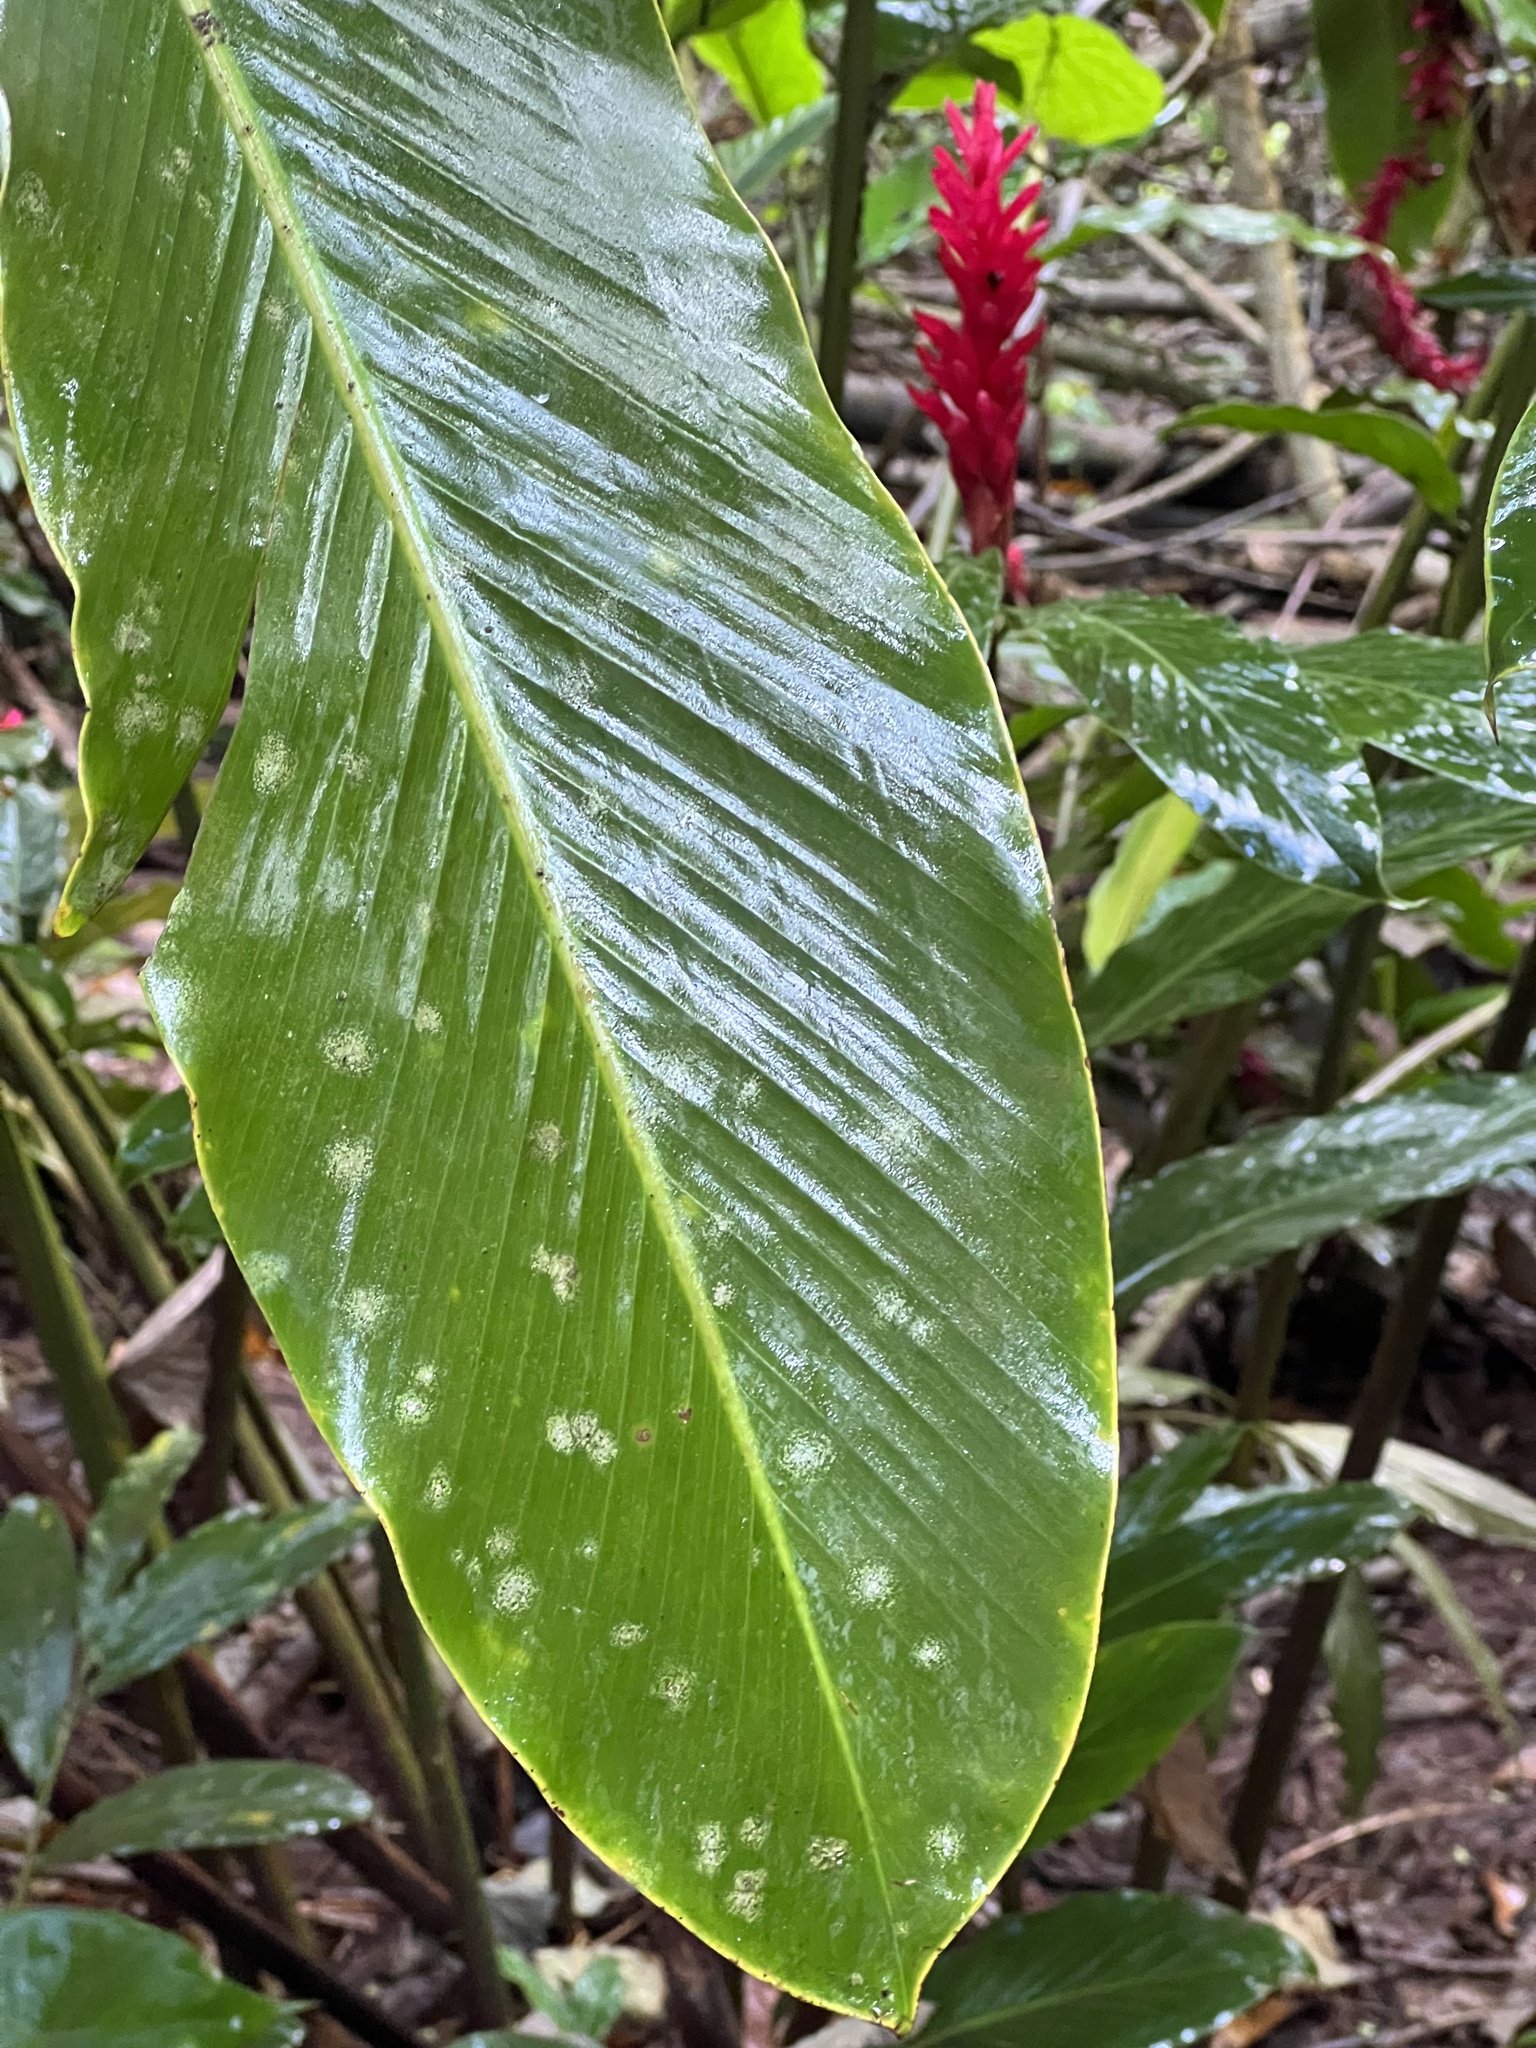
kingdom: Plantae
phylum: Tracheophyta
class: Liliopsida
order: Zingiberales
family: Zingiberaceae
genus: Alpinia
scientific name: Alpinia purpurata
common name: Red ginger
